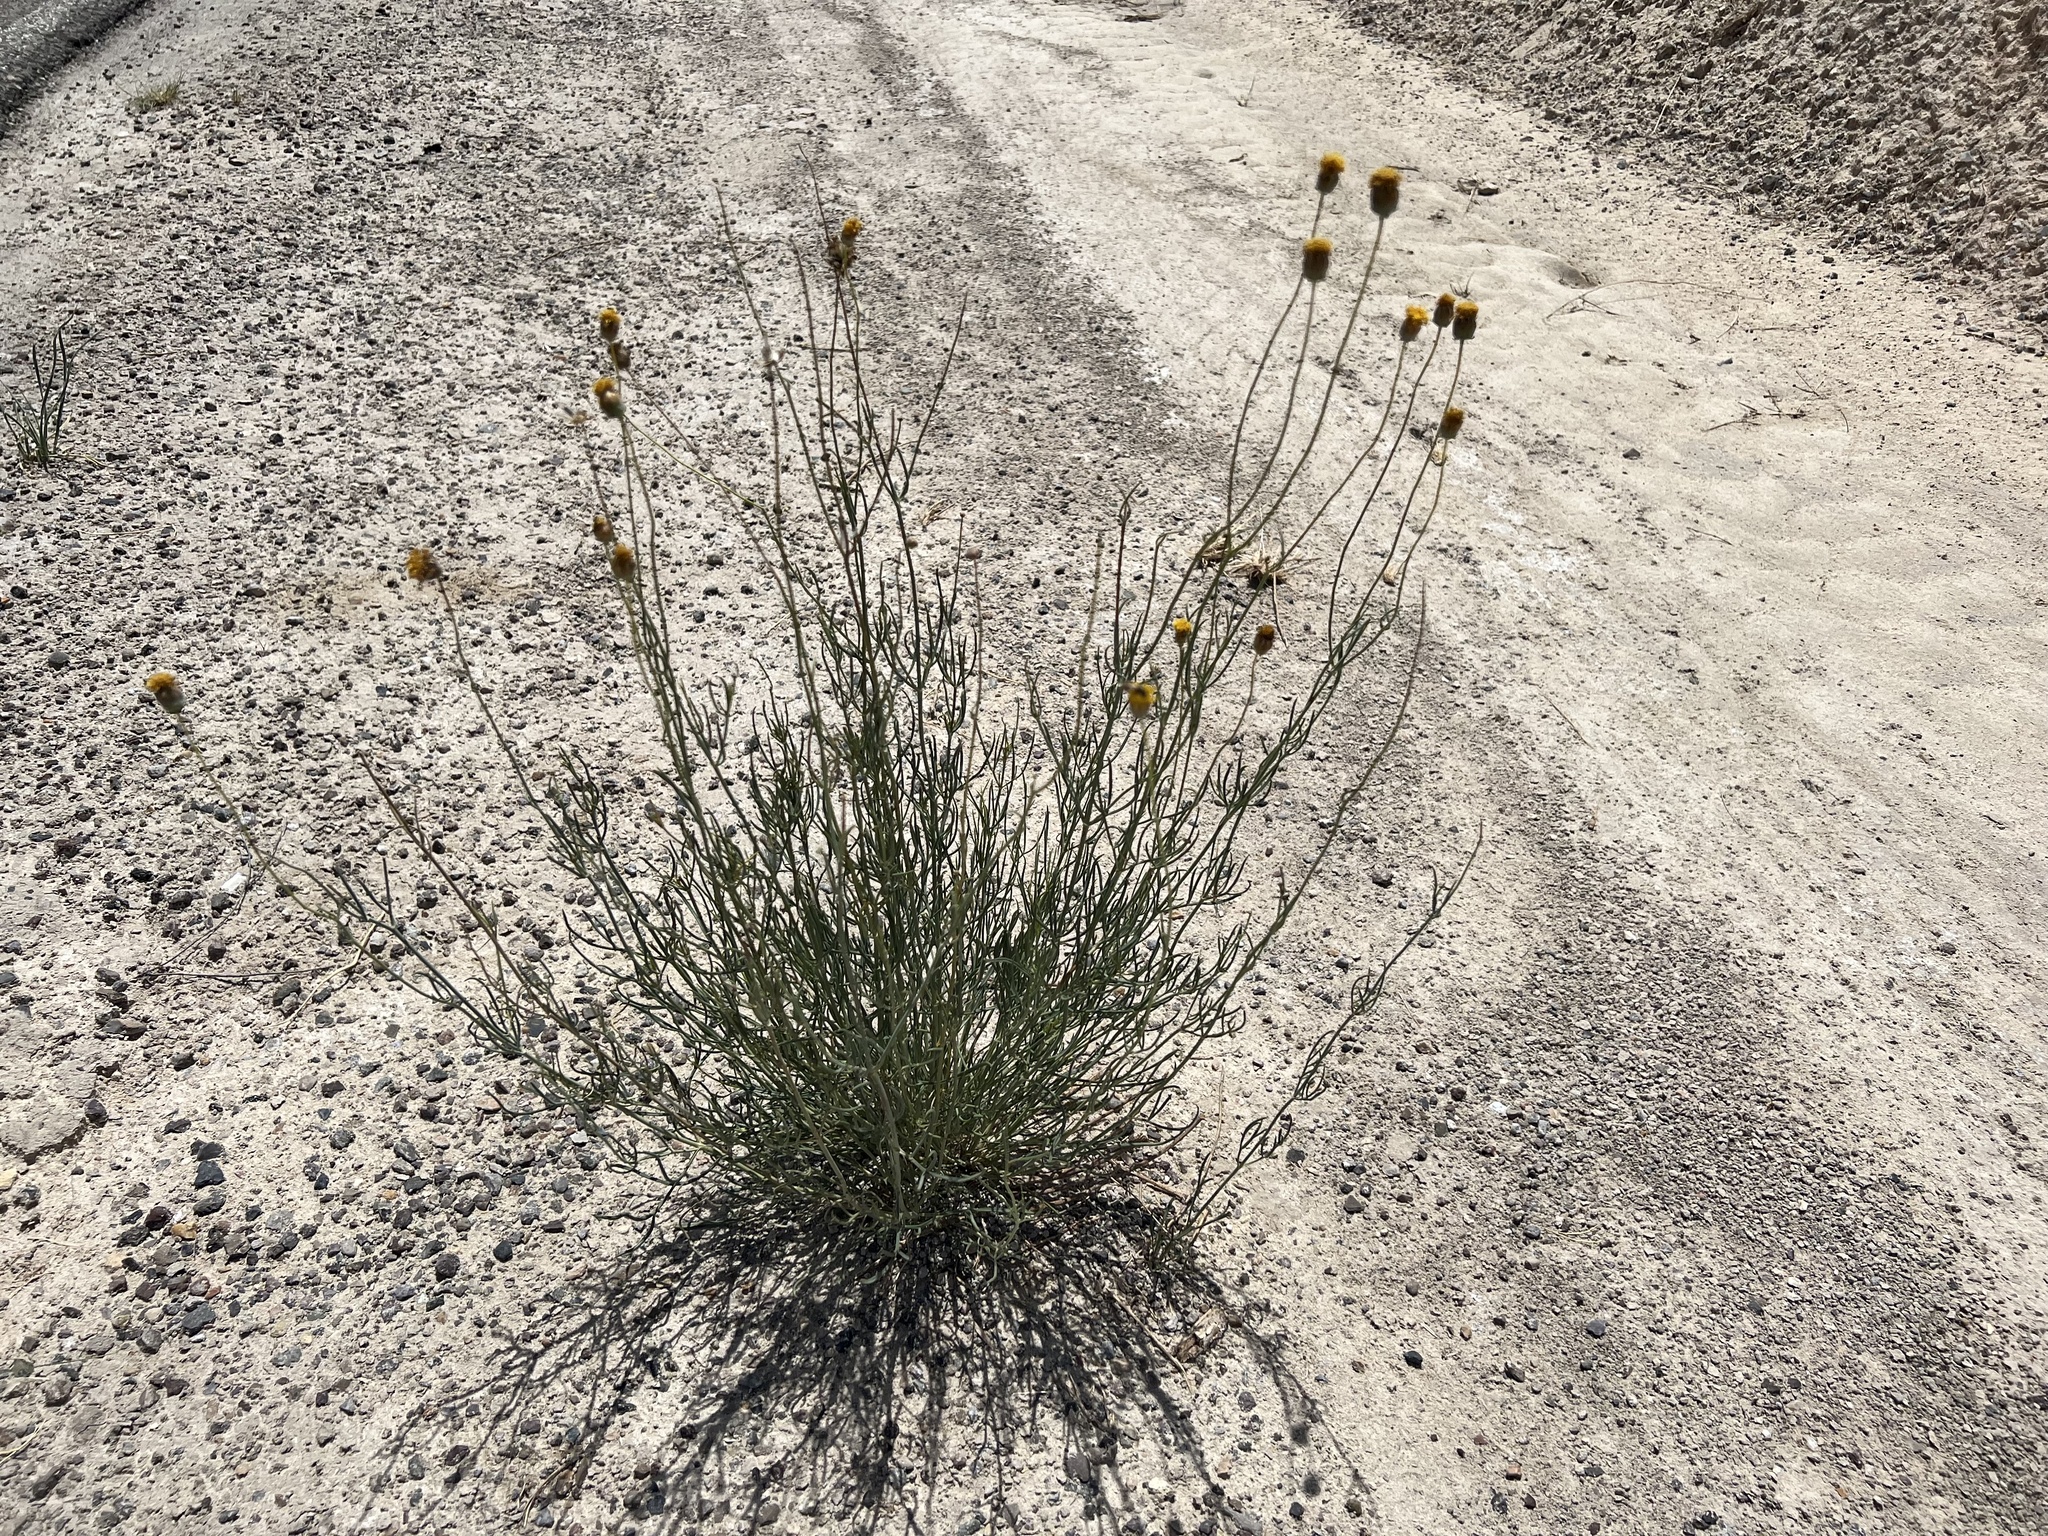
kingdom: Plantae
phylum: Tracheophyta
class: Magnoliopsida
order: Asterales
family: Asteraceae
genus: Thelesperma
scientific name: Thelesperma megapotamicum
